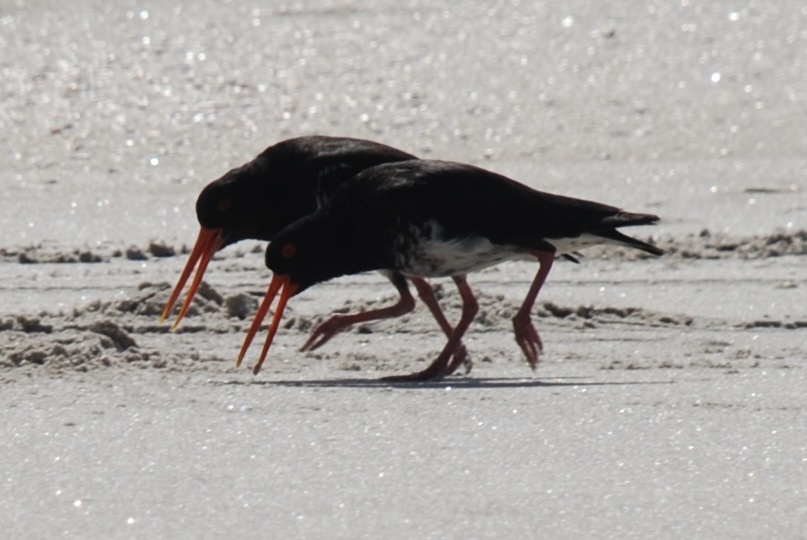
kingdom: Animalia
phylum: Chordata
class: Aves
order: Charadriiformes
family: Haematopodidae
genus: Haematopus
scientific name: Haematopus unicolor
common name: Variable oystercatcher
